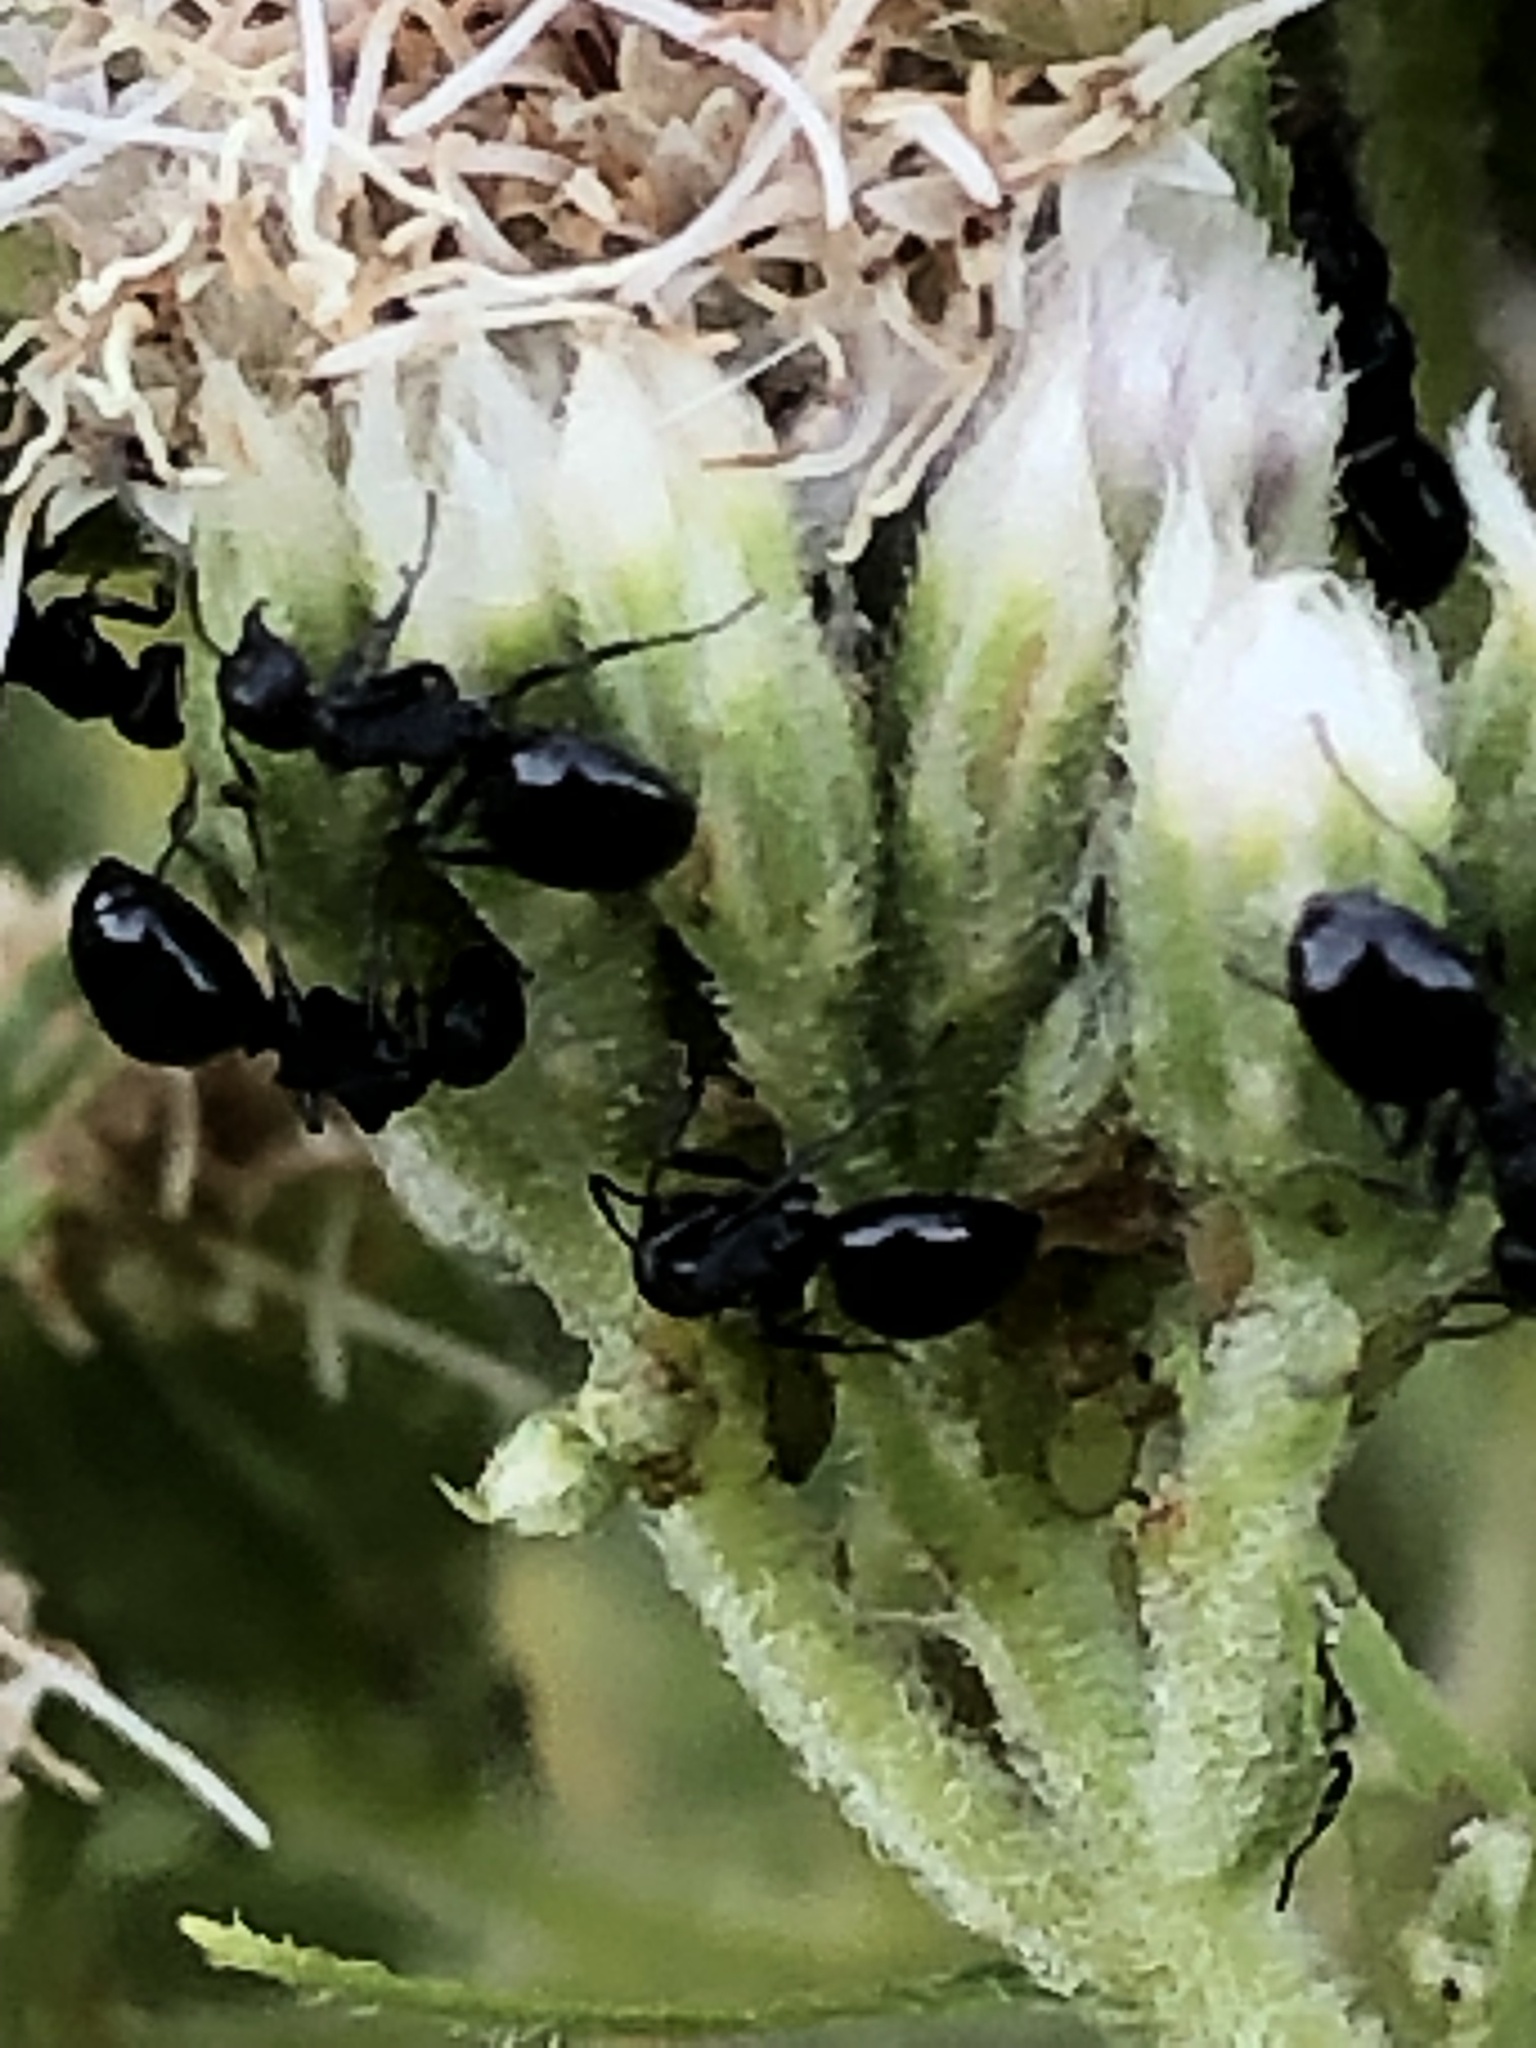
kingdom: Animalia
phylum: Arthropoda
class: Insecta
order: Hymenoptera
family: Formicidae
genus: Dolichoderus
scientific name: Dolichoderus taschenbergi
